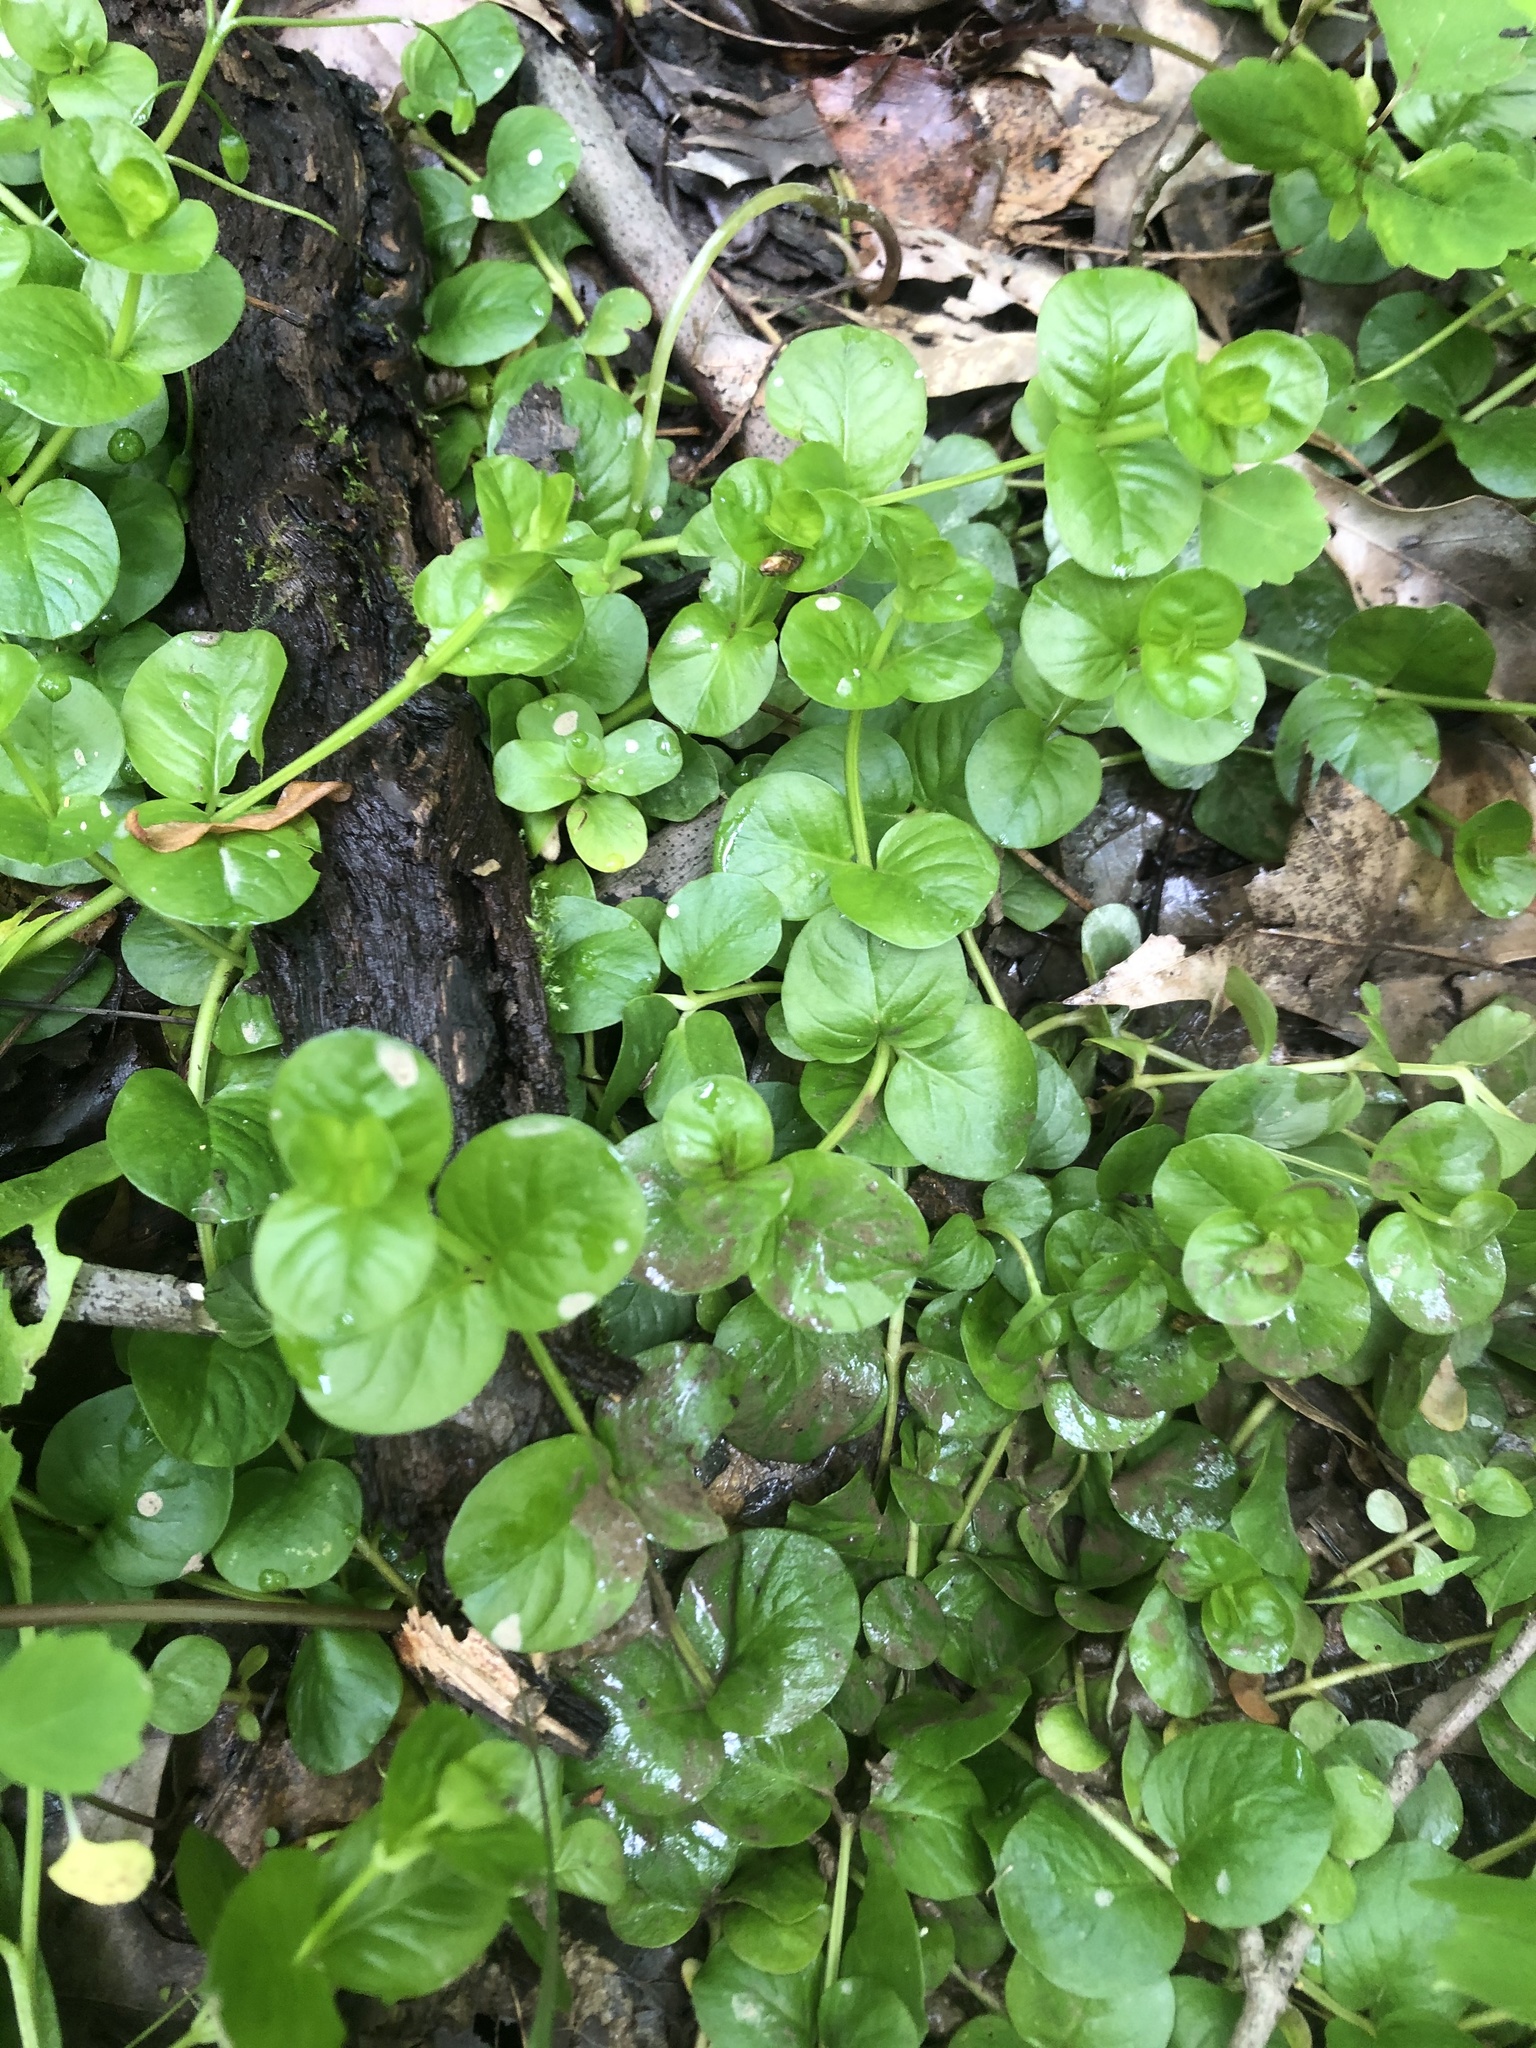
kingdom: Plantae
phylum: Tracheophyta
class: Magnoliopsida
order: Ericales
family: Primulaceae
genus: Lysimachia
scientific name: Lysimachia nummularia
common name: Moneywort
